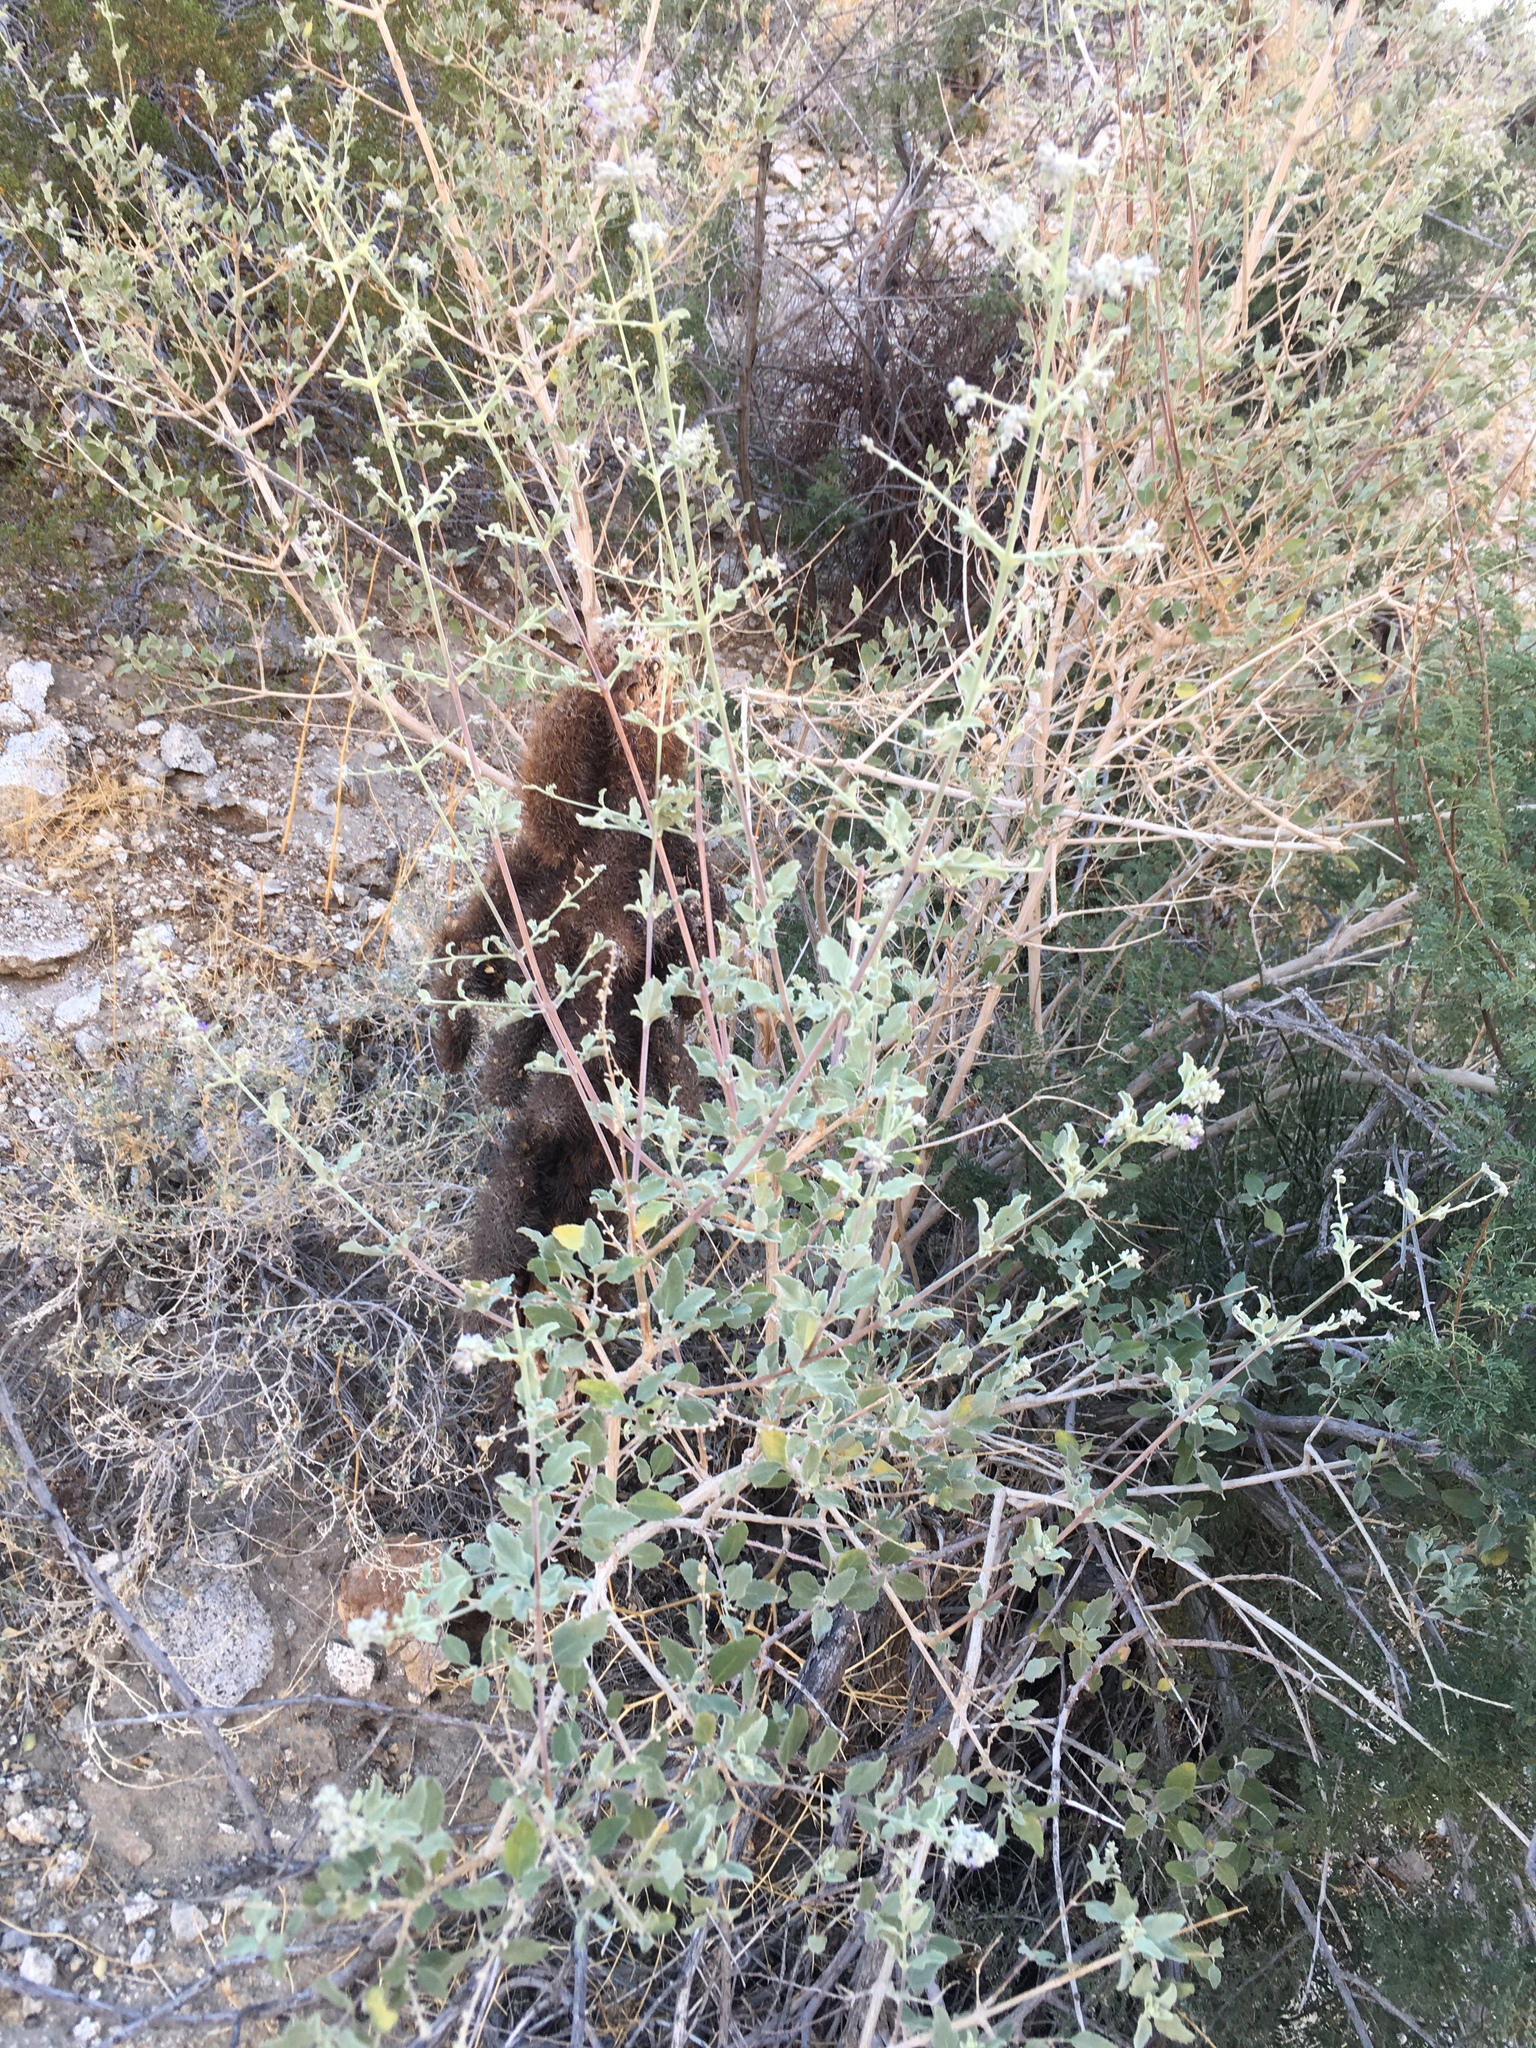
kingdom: Plantae
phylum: Tracheophyta
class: Magnoliopsida
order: Lamiales
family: Lamiaceae
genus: Condea
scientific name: Condea emoryi
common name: Chia
